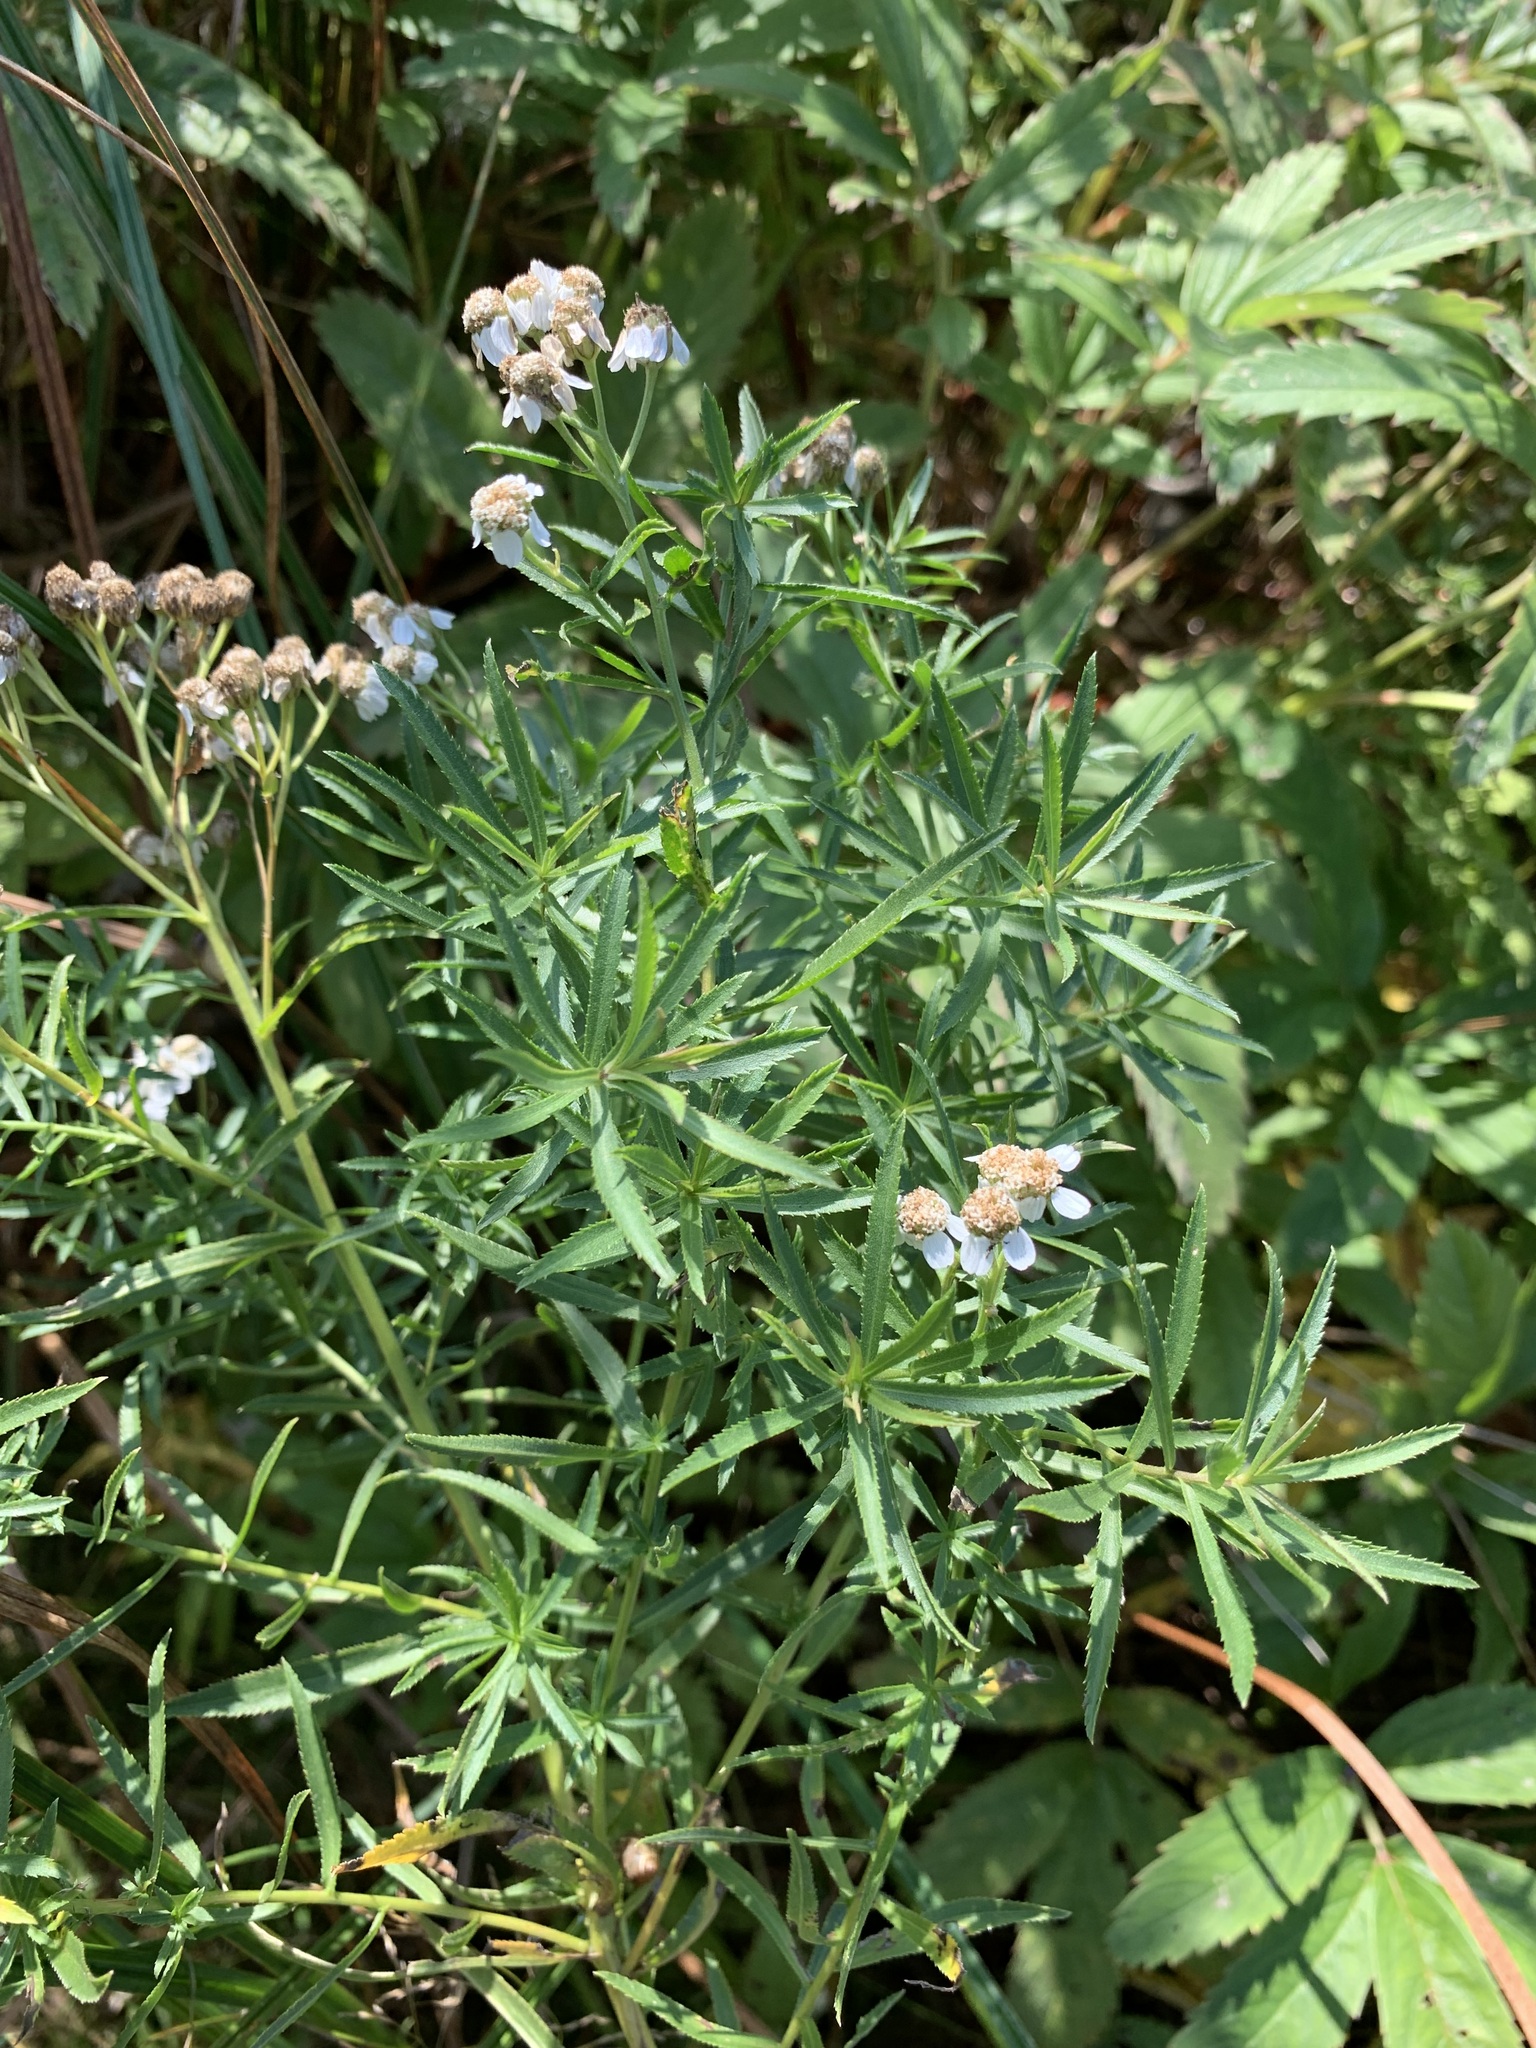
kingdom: Plantae
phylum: Tracheophyta
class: Magnoliopsida
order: Asterales
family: Asteraceae
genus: Achillea
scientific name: Achillea salicifolia
